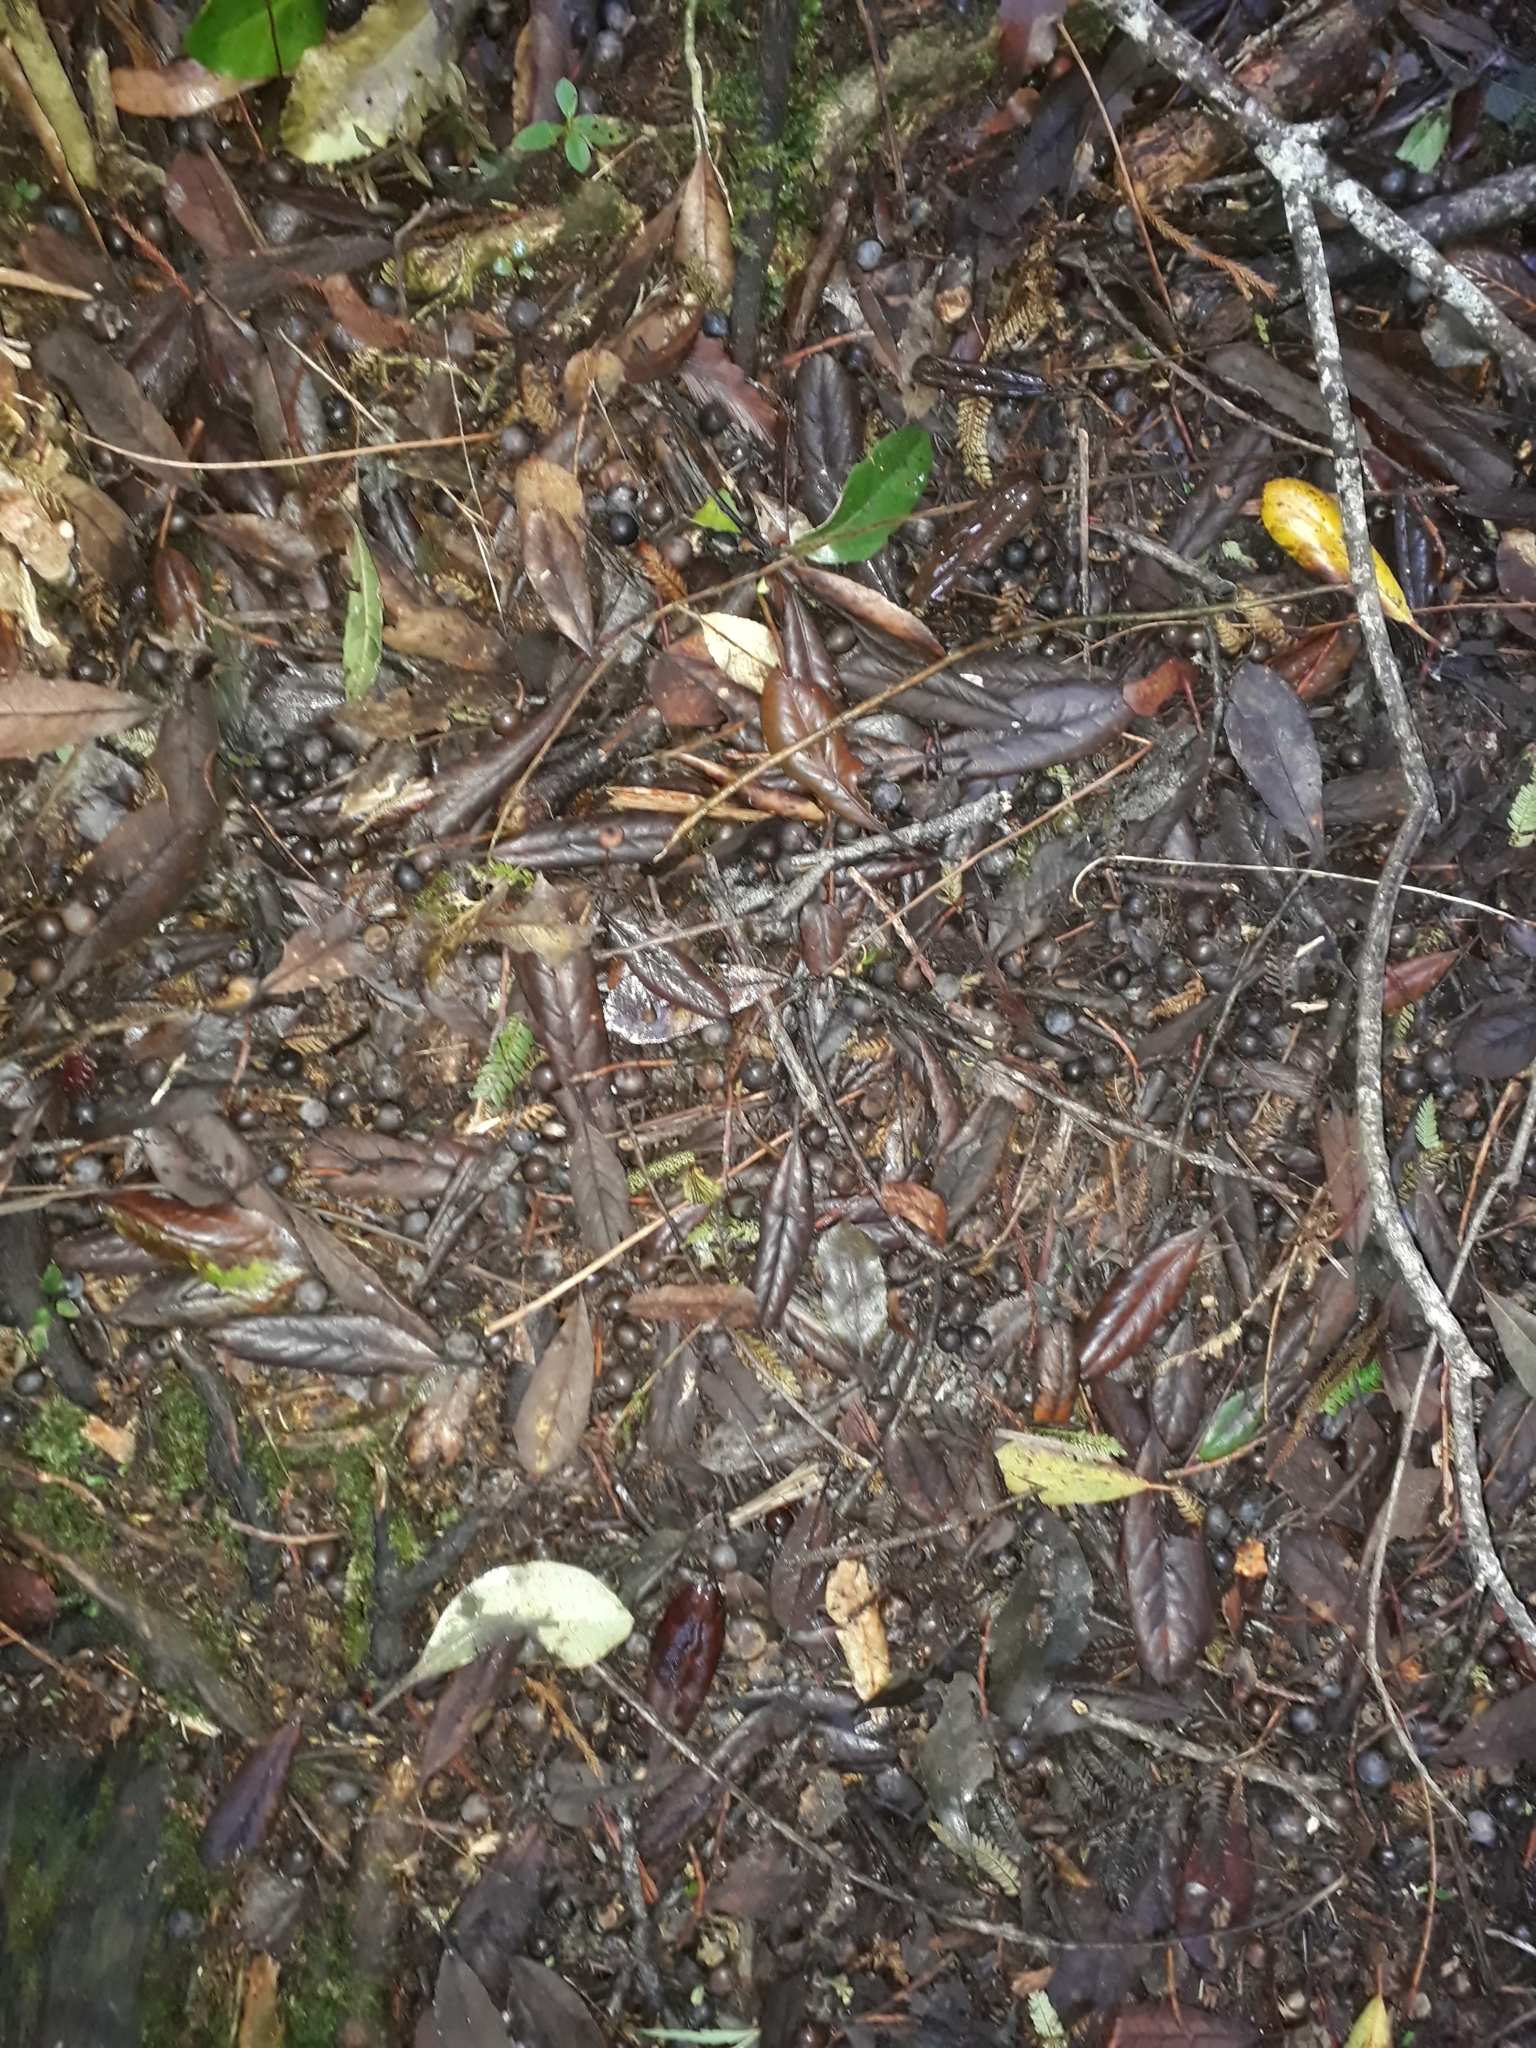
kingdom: Plantae
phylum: Tracheophyta
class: Magnoliopsida
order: Oxalidales
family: Elaeocarpaceae
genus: Elaeocarpus
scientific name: Elaeocarpus dentatus
